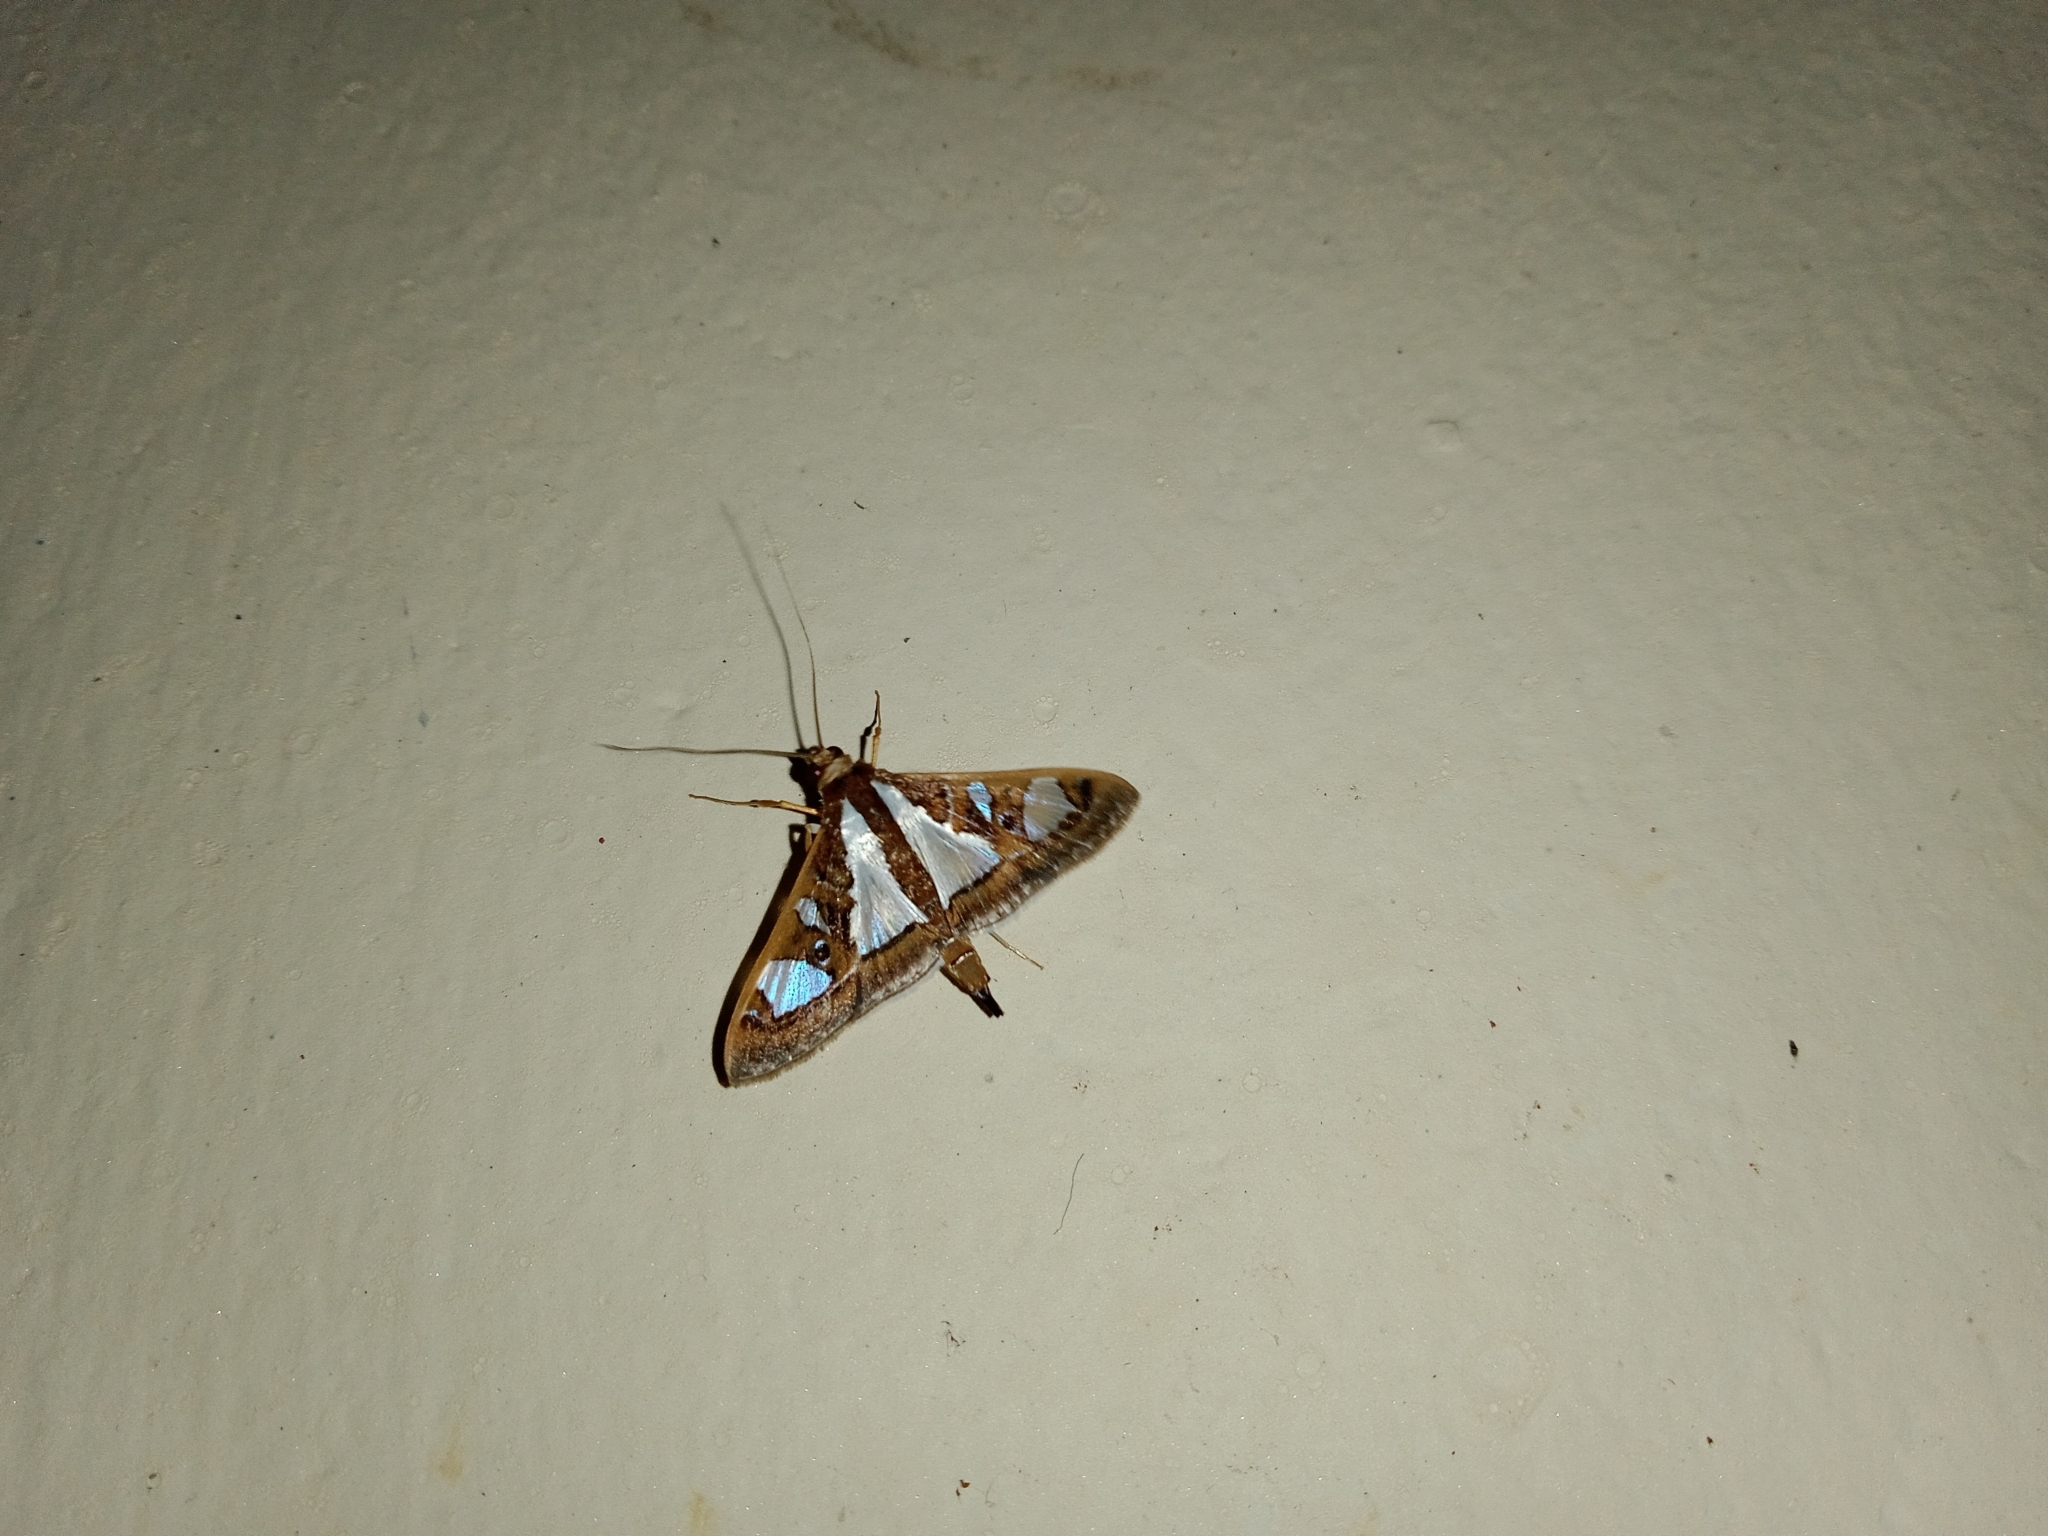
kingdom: Animalia
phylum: Arthropoda
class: Insecta
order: Lepidoptera
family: Crambidae
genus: Glyphodes
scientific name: Glyphodes bivitralis
